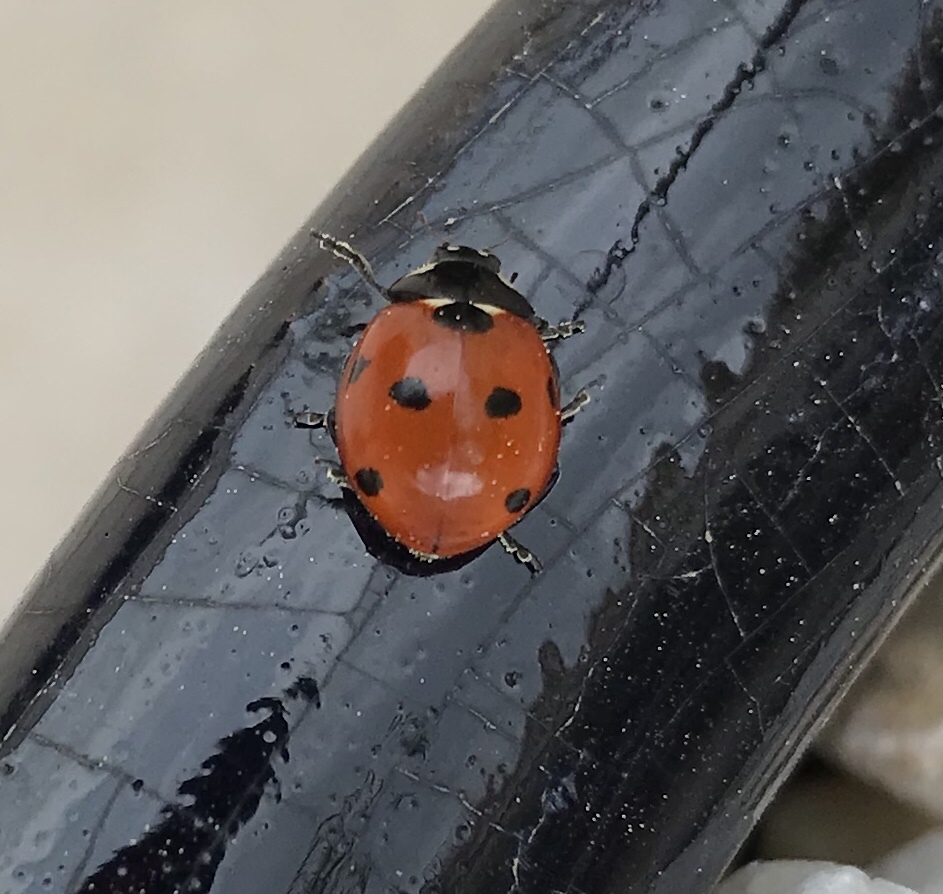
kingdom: Animalia
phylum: Arthropoda
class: Insecta
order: Coleoptera
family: Coccinellidae
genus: Coccinella
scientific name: Coccinella septempunctata
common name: Sevenspotted lady beetle
